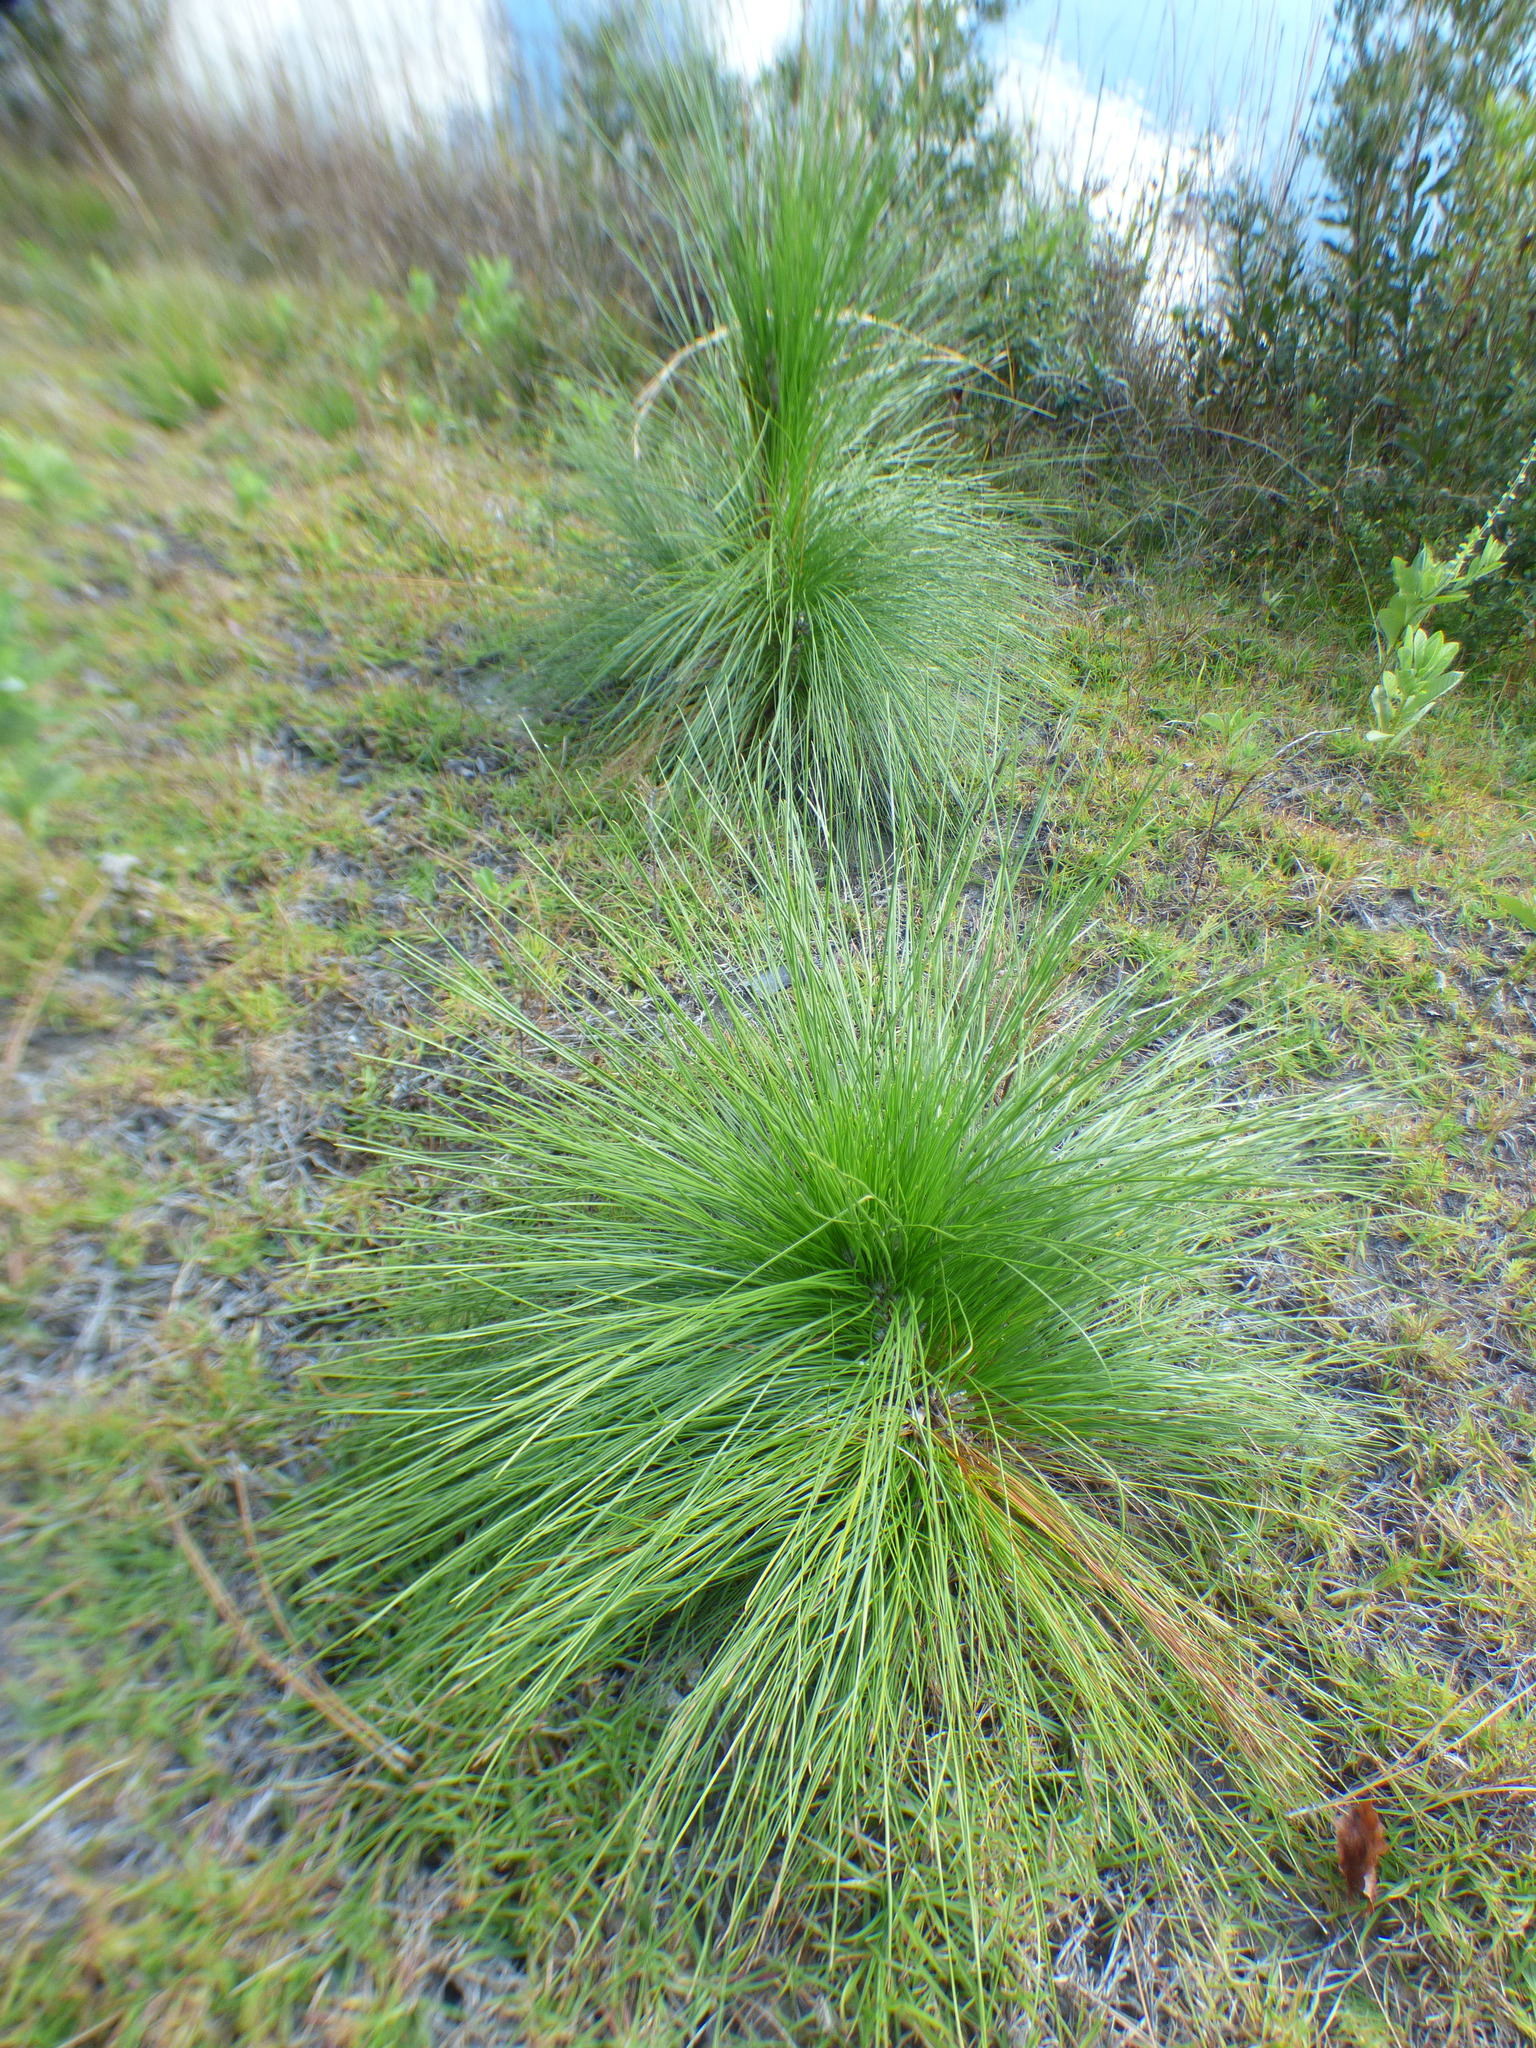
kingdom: Plantae
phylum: Tracheophyta
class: Pinopsida
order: Pinales
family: Pinaceae
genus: Pinus
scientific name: Pinus palustris
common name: Longleaf pine
